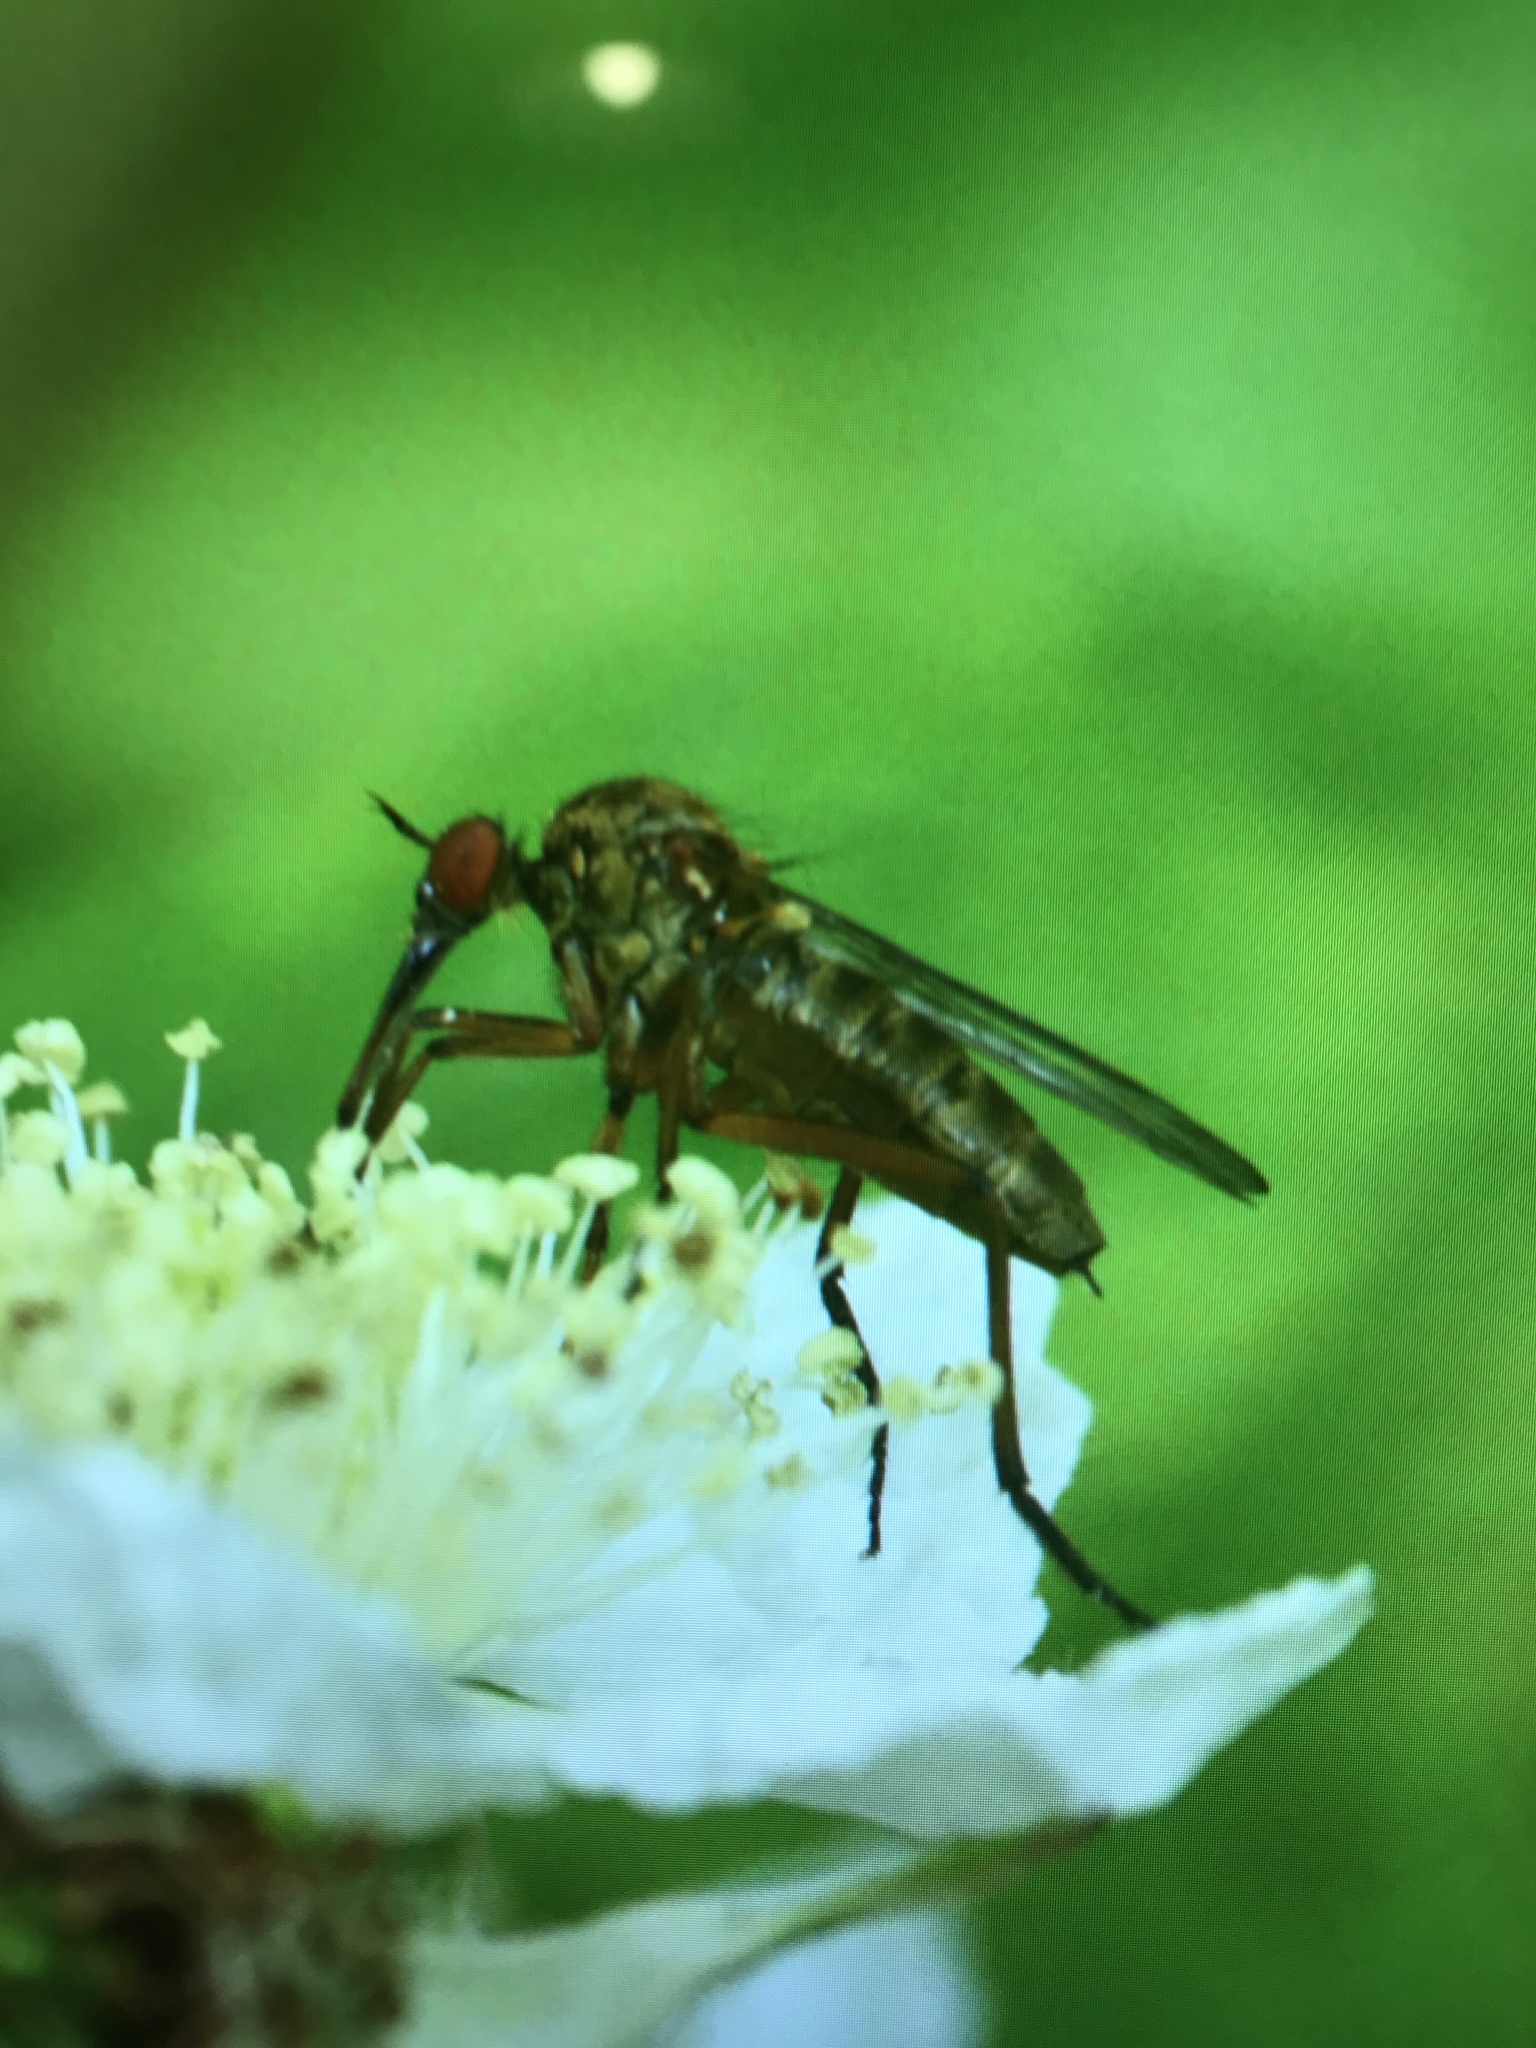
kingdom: Animalia
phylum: Arthropoda
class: Insecta
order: Diptera
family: Empididae
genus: Empis
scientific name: Empis livida
